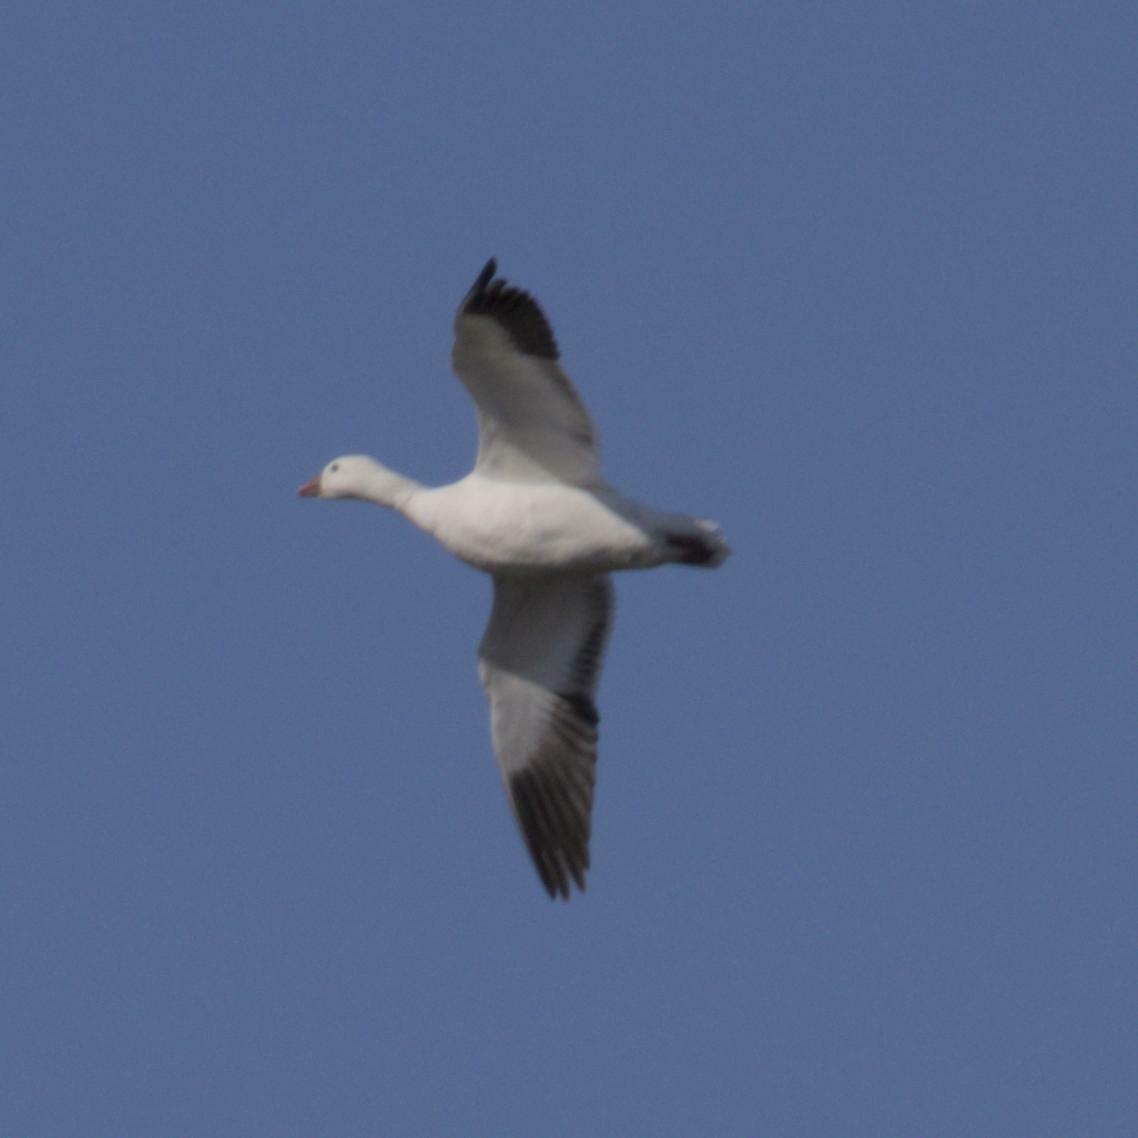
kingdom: Animalia
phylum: Chordata
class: Aves
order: Anseriformes
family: Anatidae
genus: Anser
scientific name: Anser rossii
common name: Ross's goose
